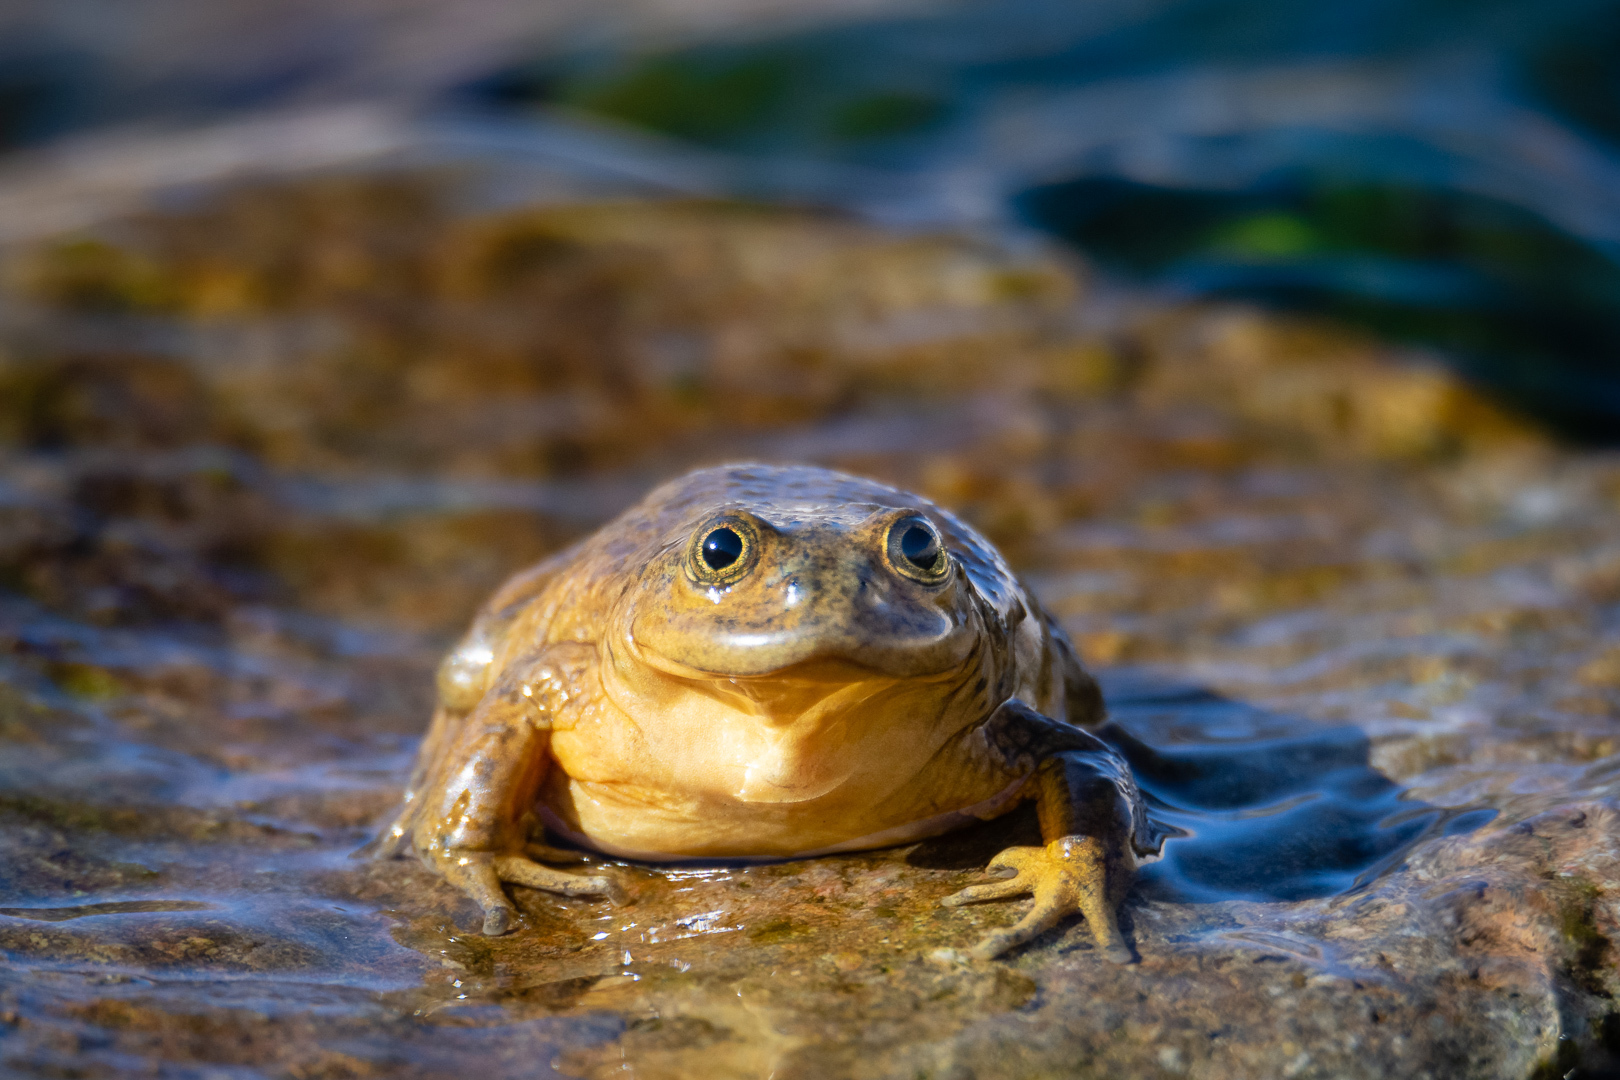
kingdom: Animalia
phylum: Chordata
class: Amphibia
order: Anura
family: Telmatobiidae
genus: Telmatobius
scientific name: Telmatobius chusmisensis
